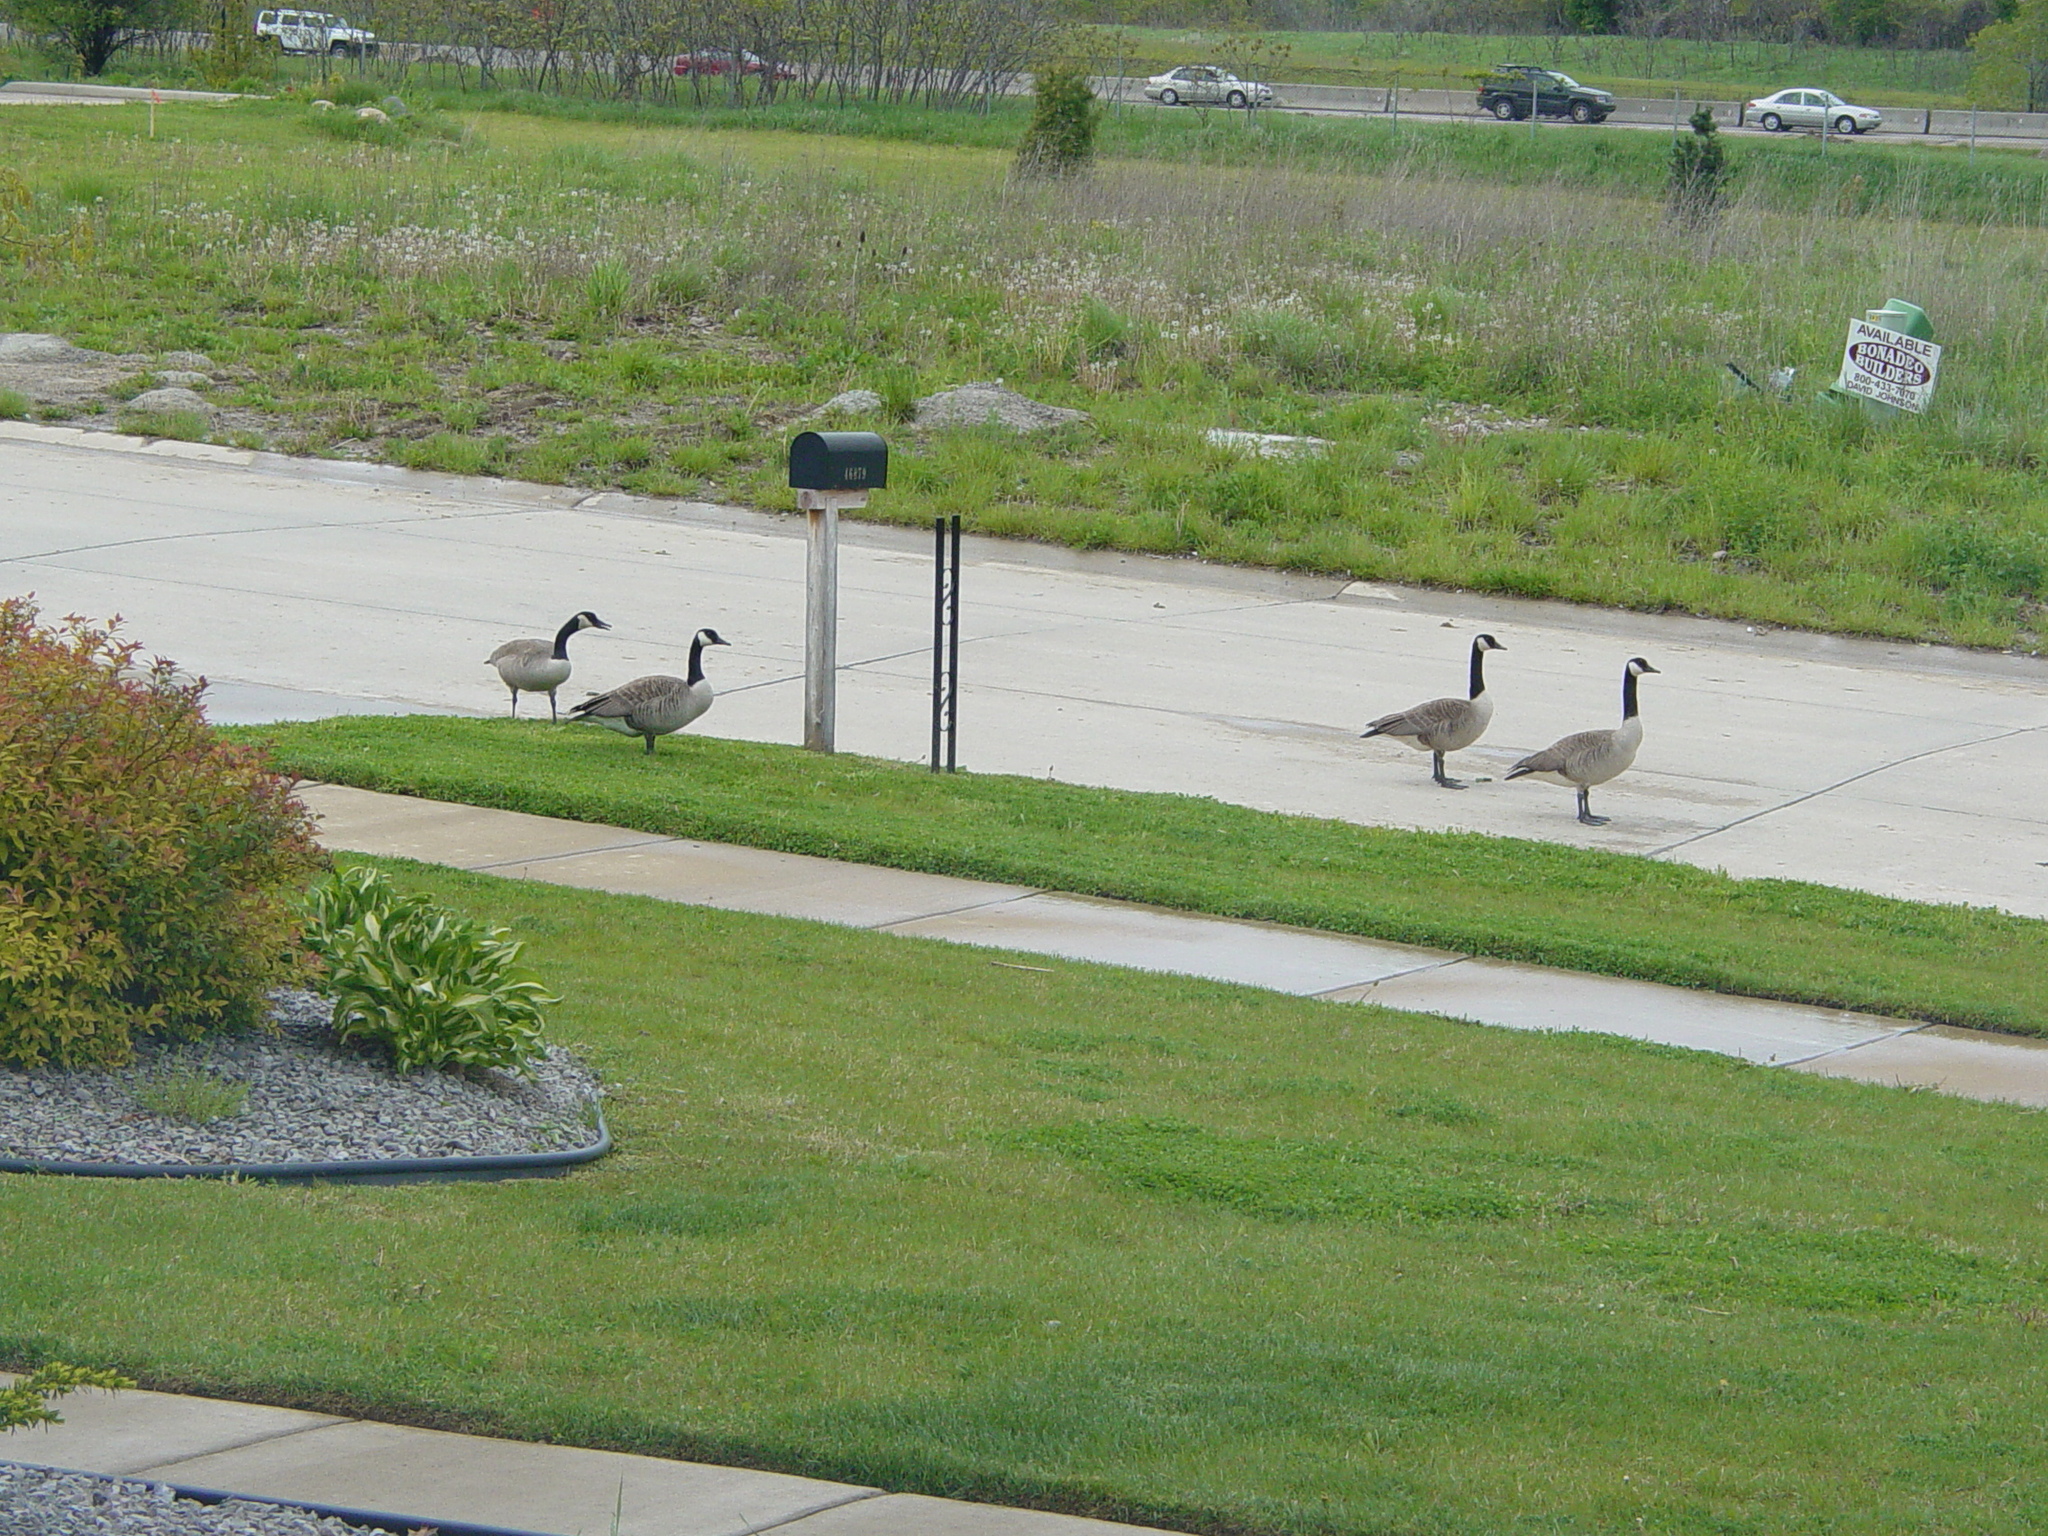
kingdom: Animalia
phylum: Chordata
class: Aves
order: Anseriformes
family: Anatidae
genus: Branta
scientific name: Branta canadensis
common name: Canada goose
